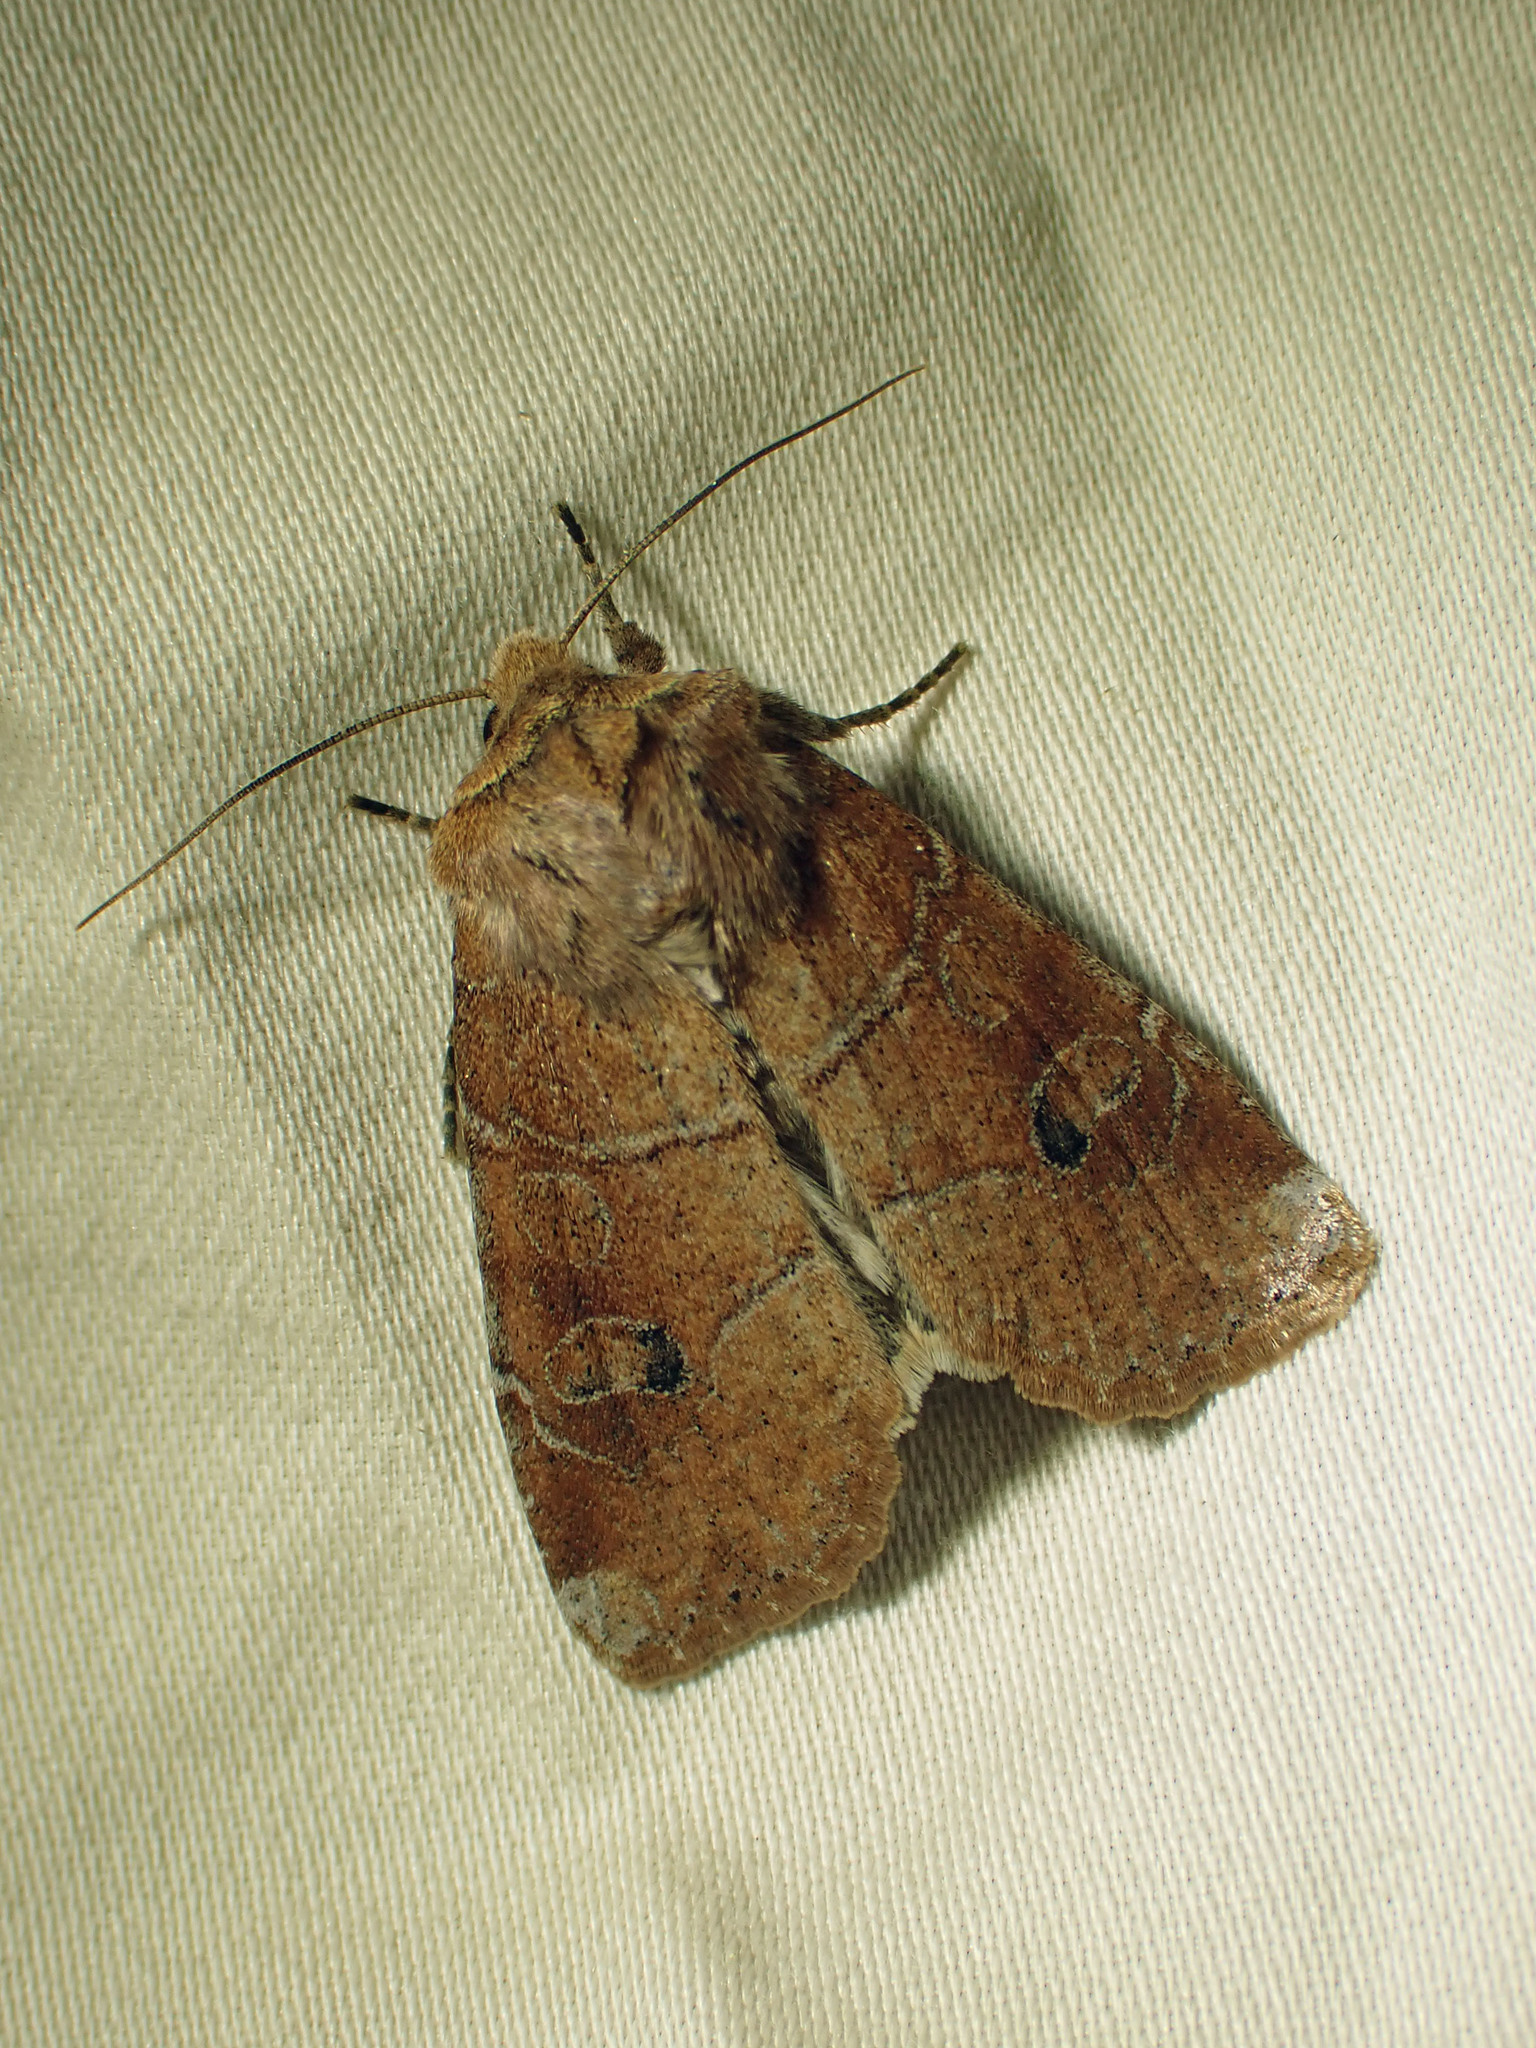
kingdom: Animalia
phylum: Arthropoda
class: Insecta
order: Lepidoptera
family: Noctuidae
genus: Crocigrapha
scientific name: Crocigrapha normani
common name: Norman's quaker
